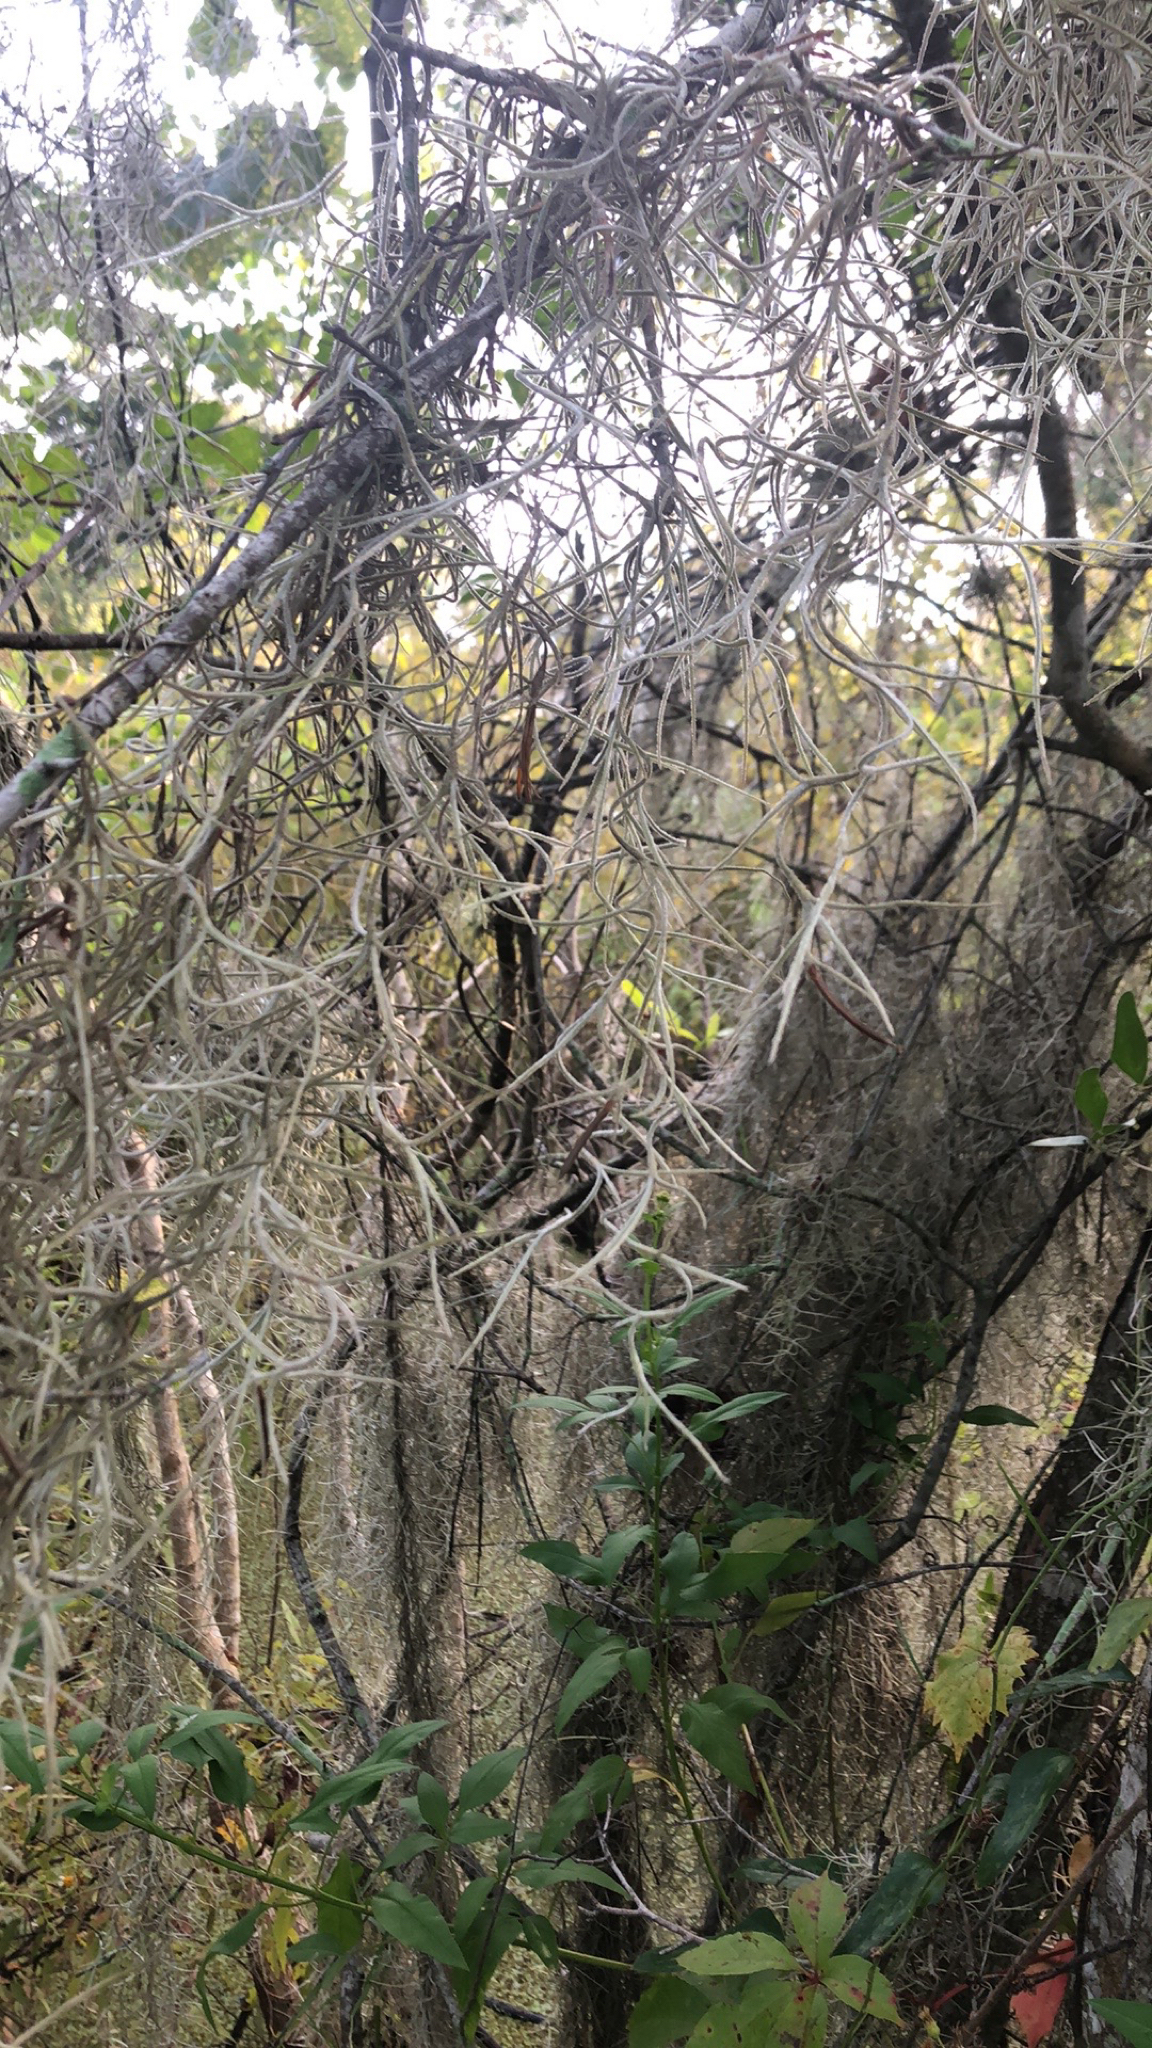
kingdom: Plantae
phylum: Tracheophyta
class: Liliopsida
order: Poales
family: Bromeliaceae
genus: Tillandsia
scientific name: Tillandsia usneoides
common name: Spanish moss
